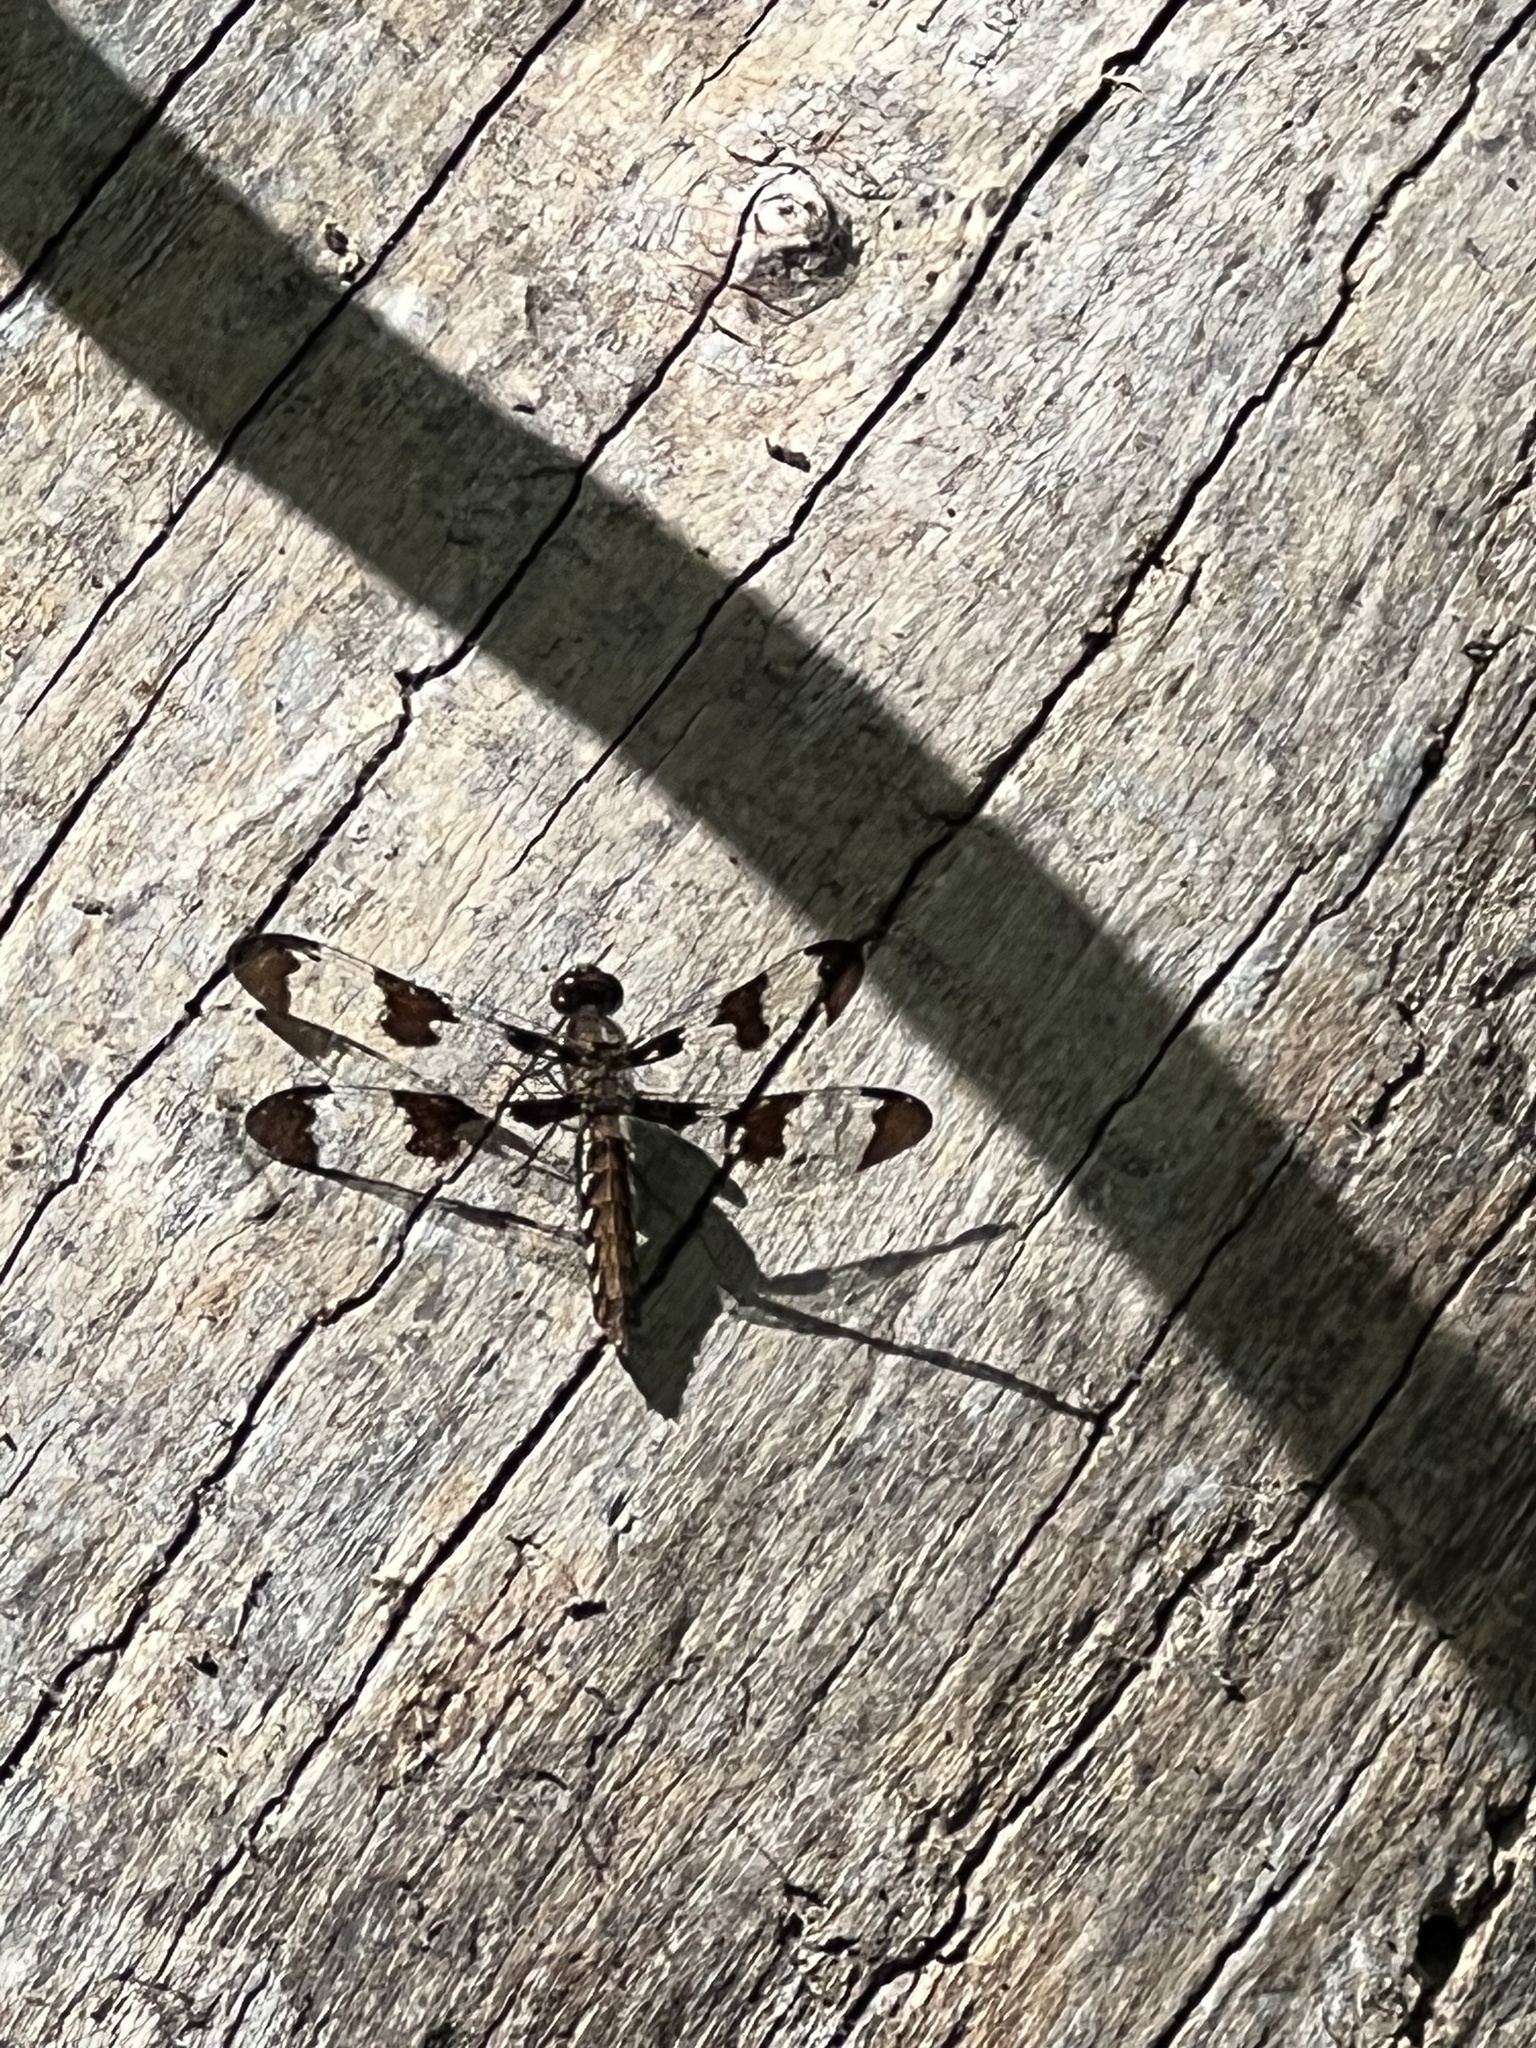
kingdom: Animalia
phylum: Arthropoda
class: Insecta
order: Odonata
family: Libellulidae
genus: Plathemis
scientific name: Plathemis lydia
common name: Common whitetail
